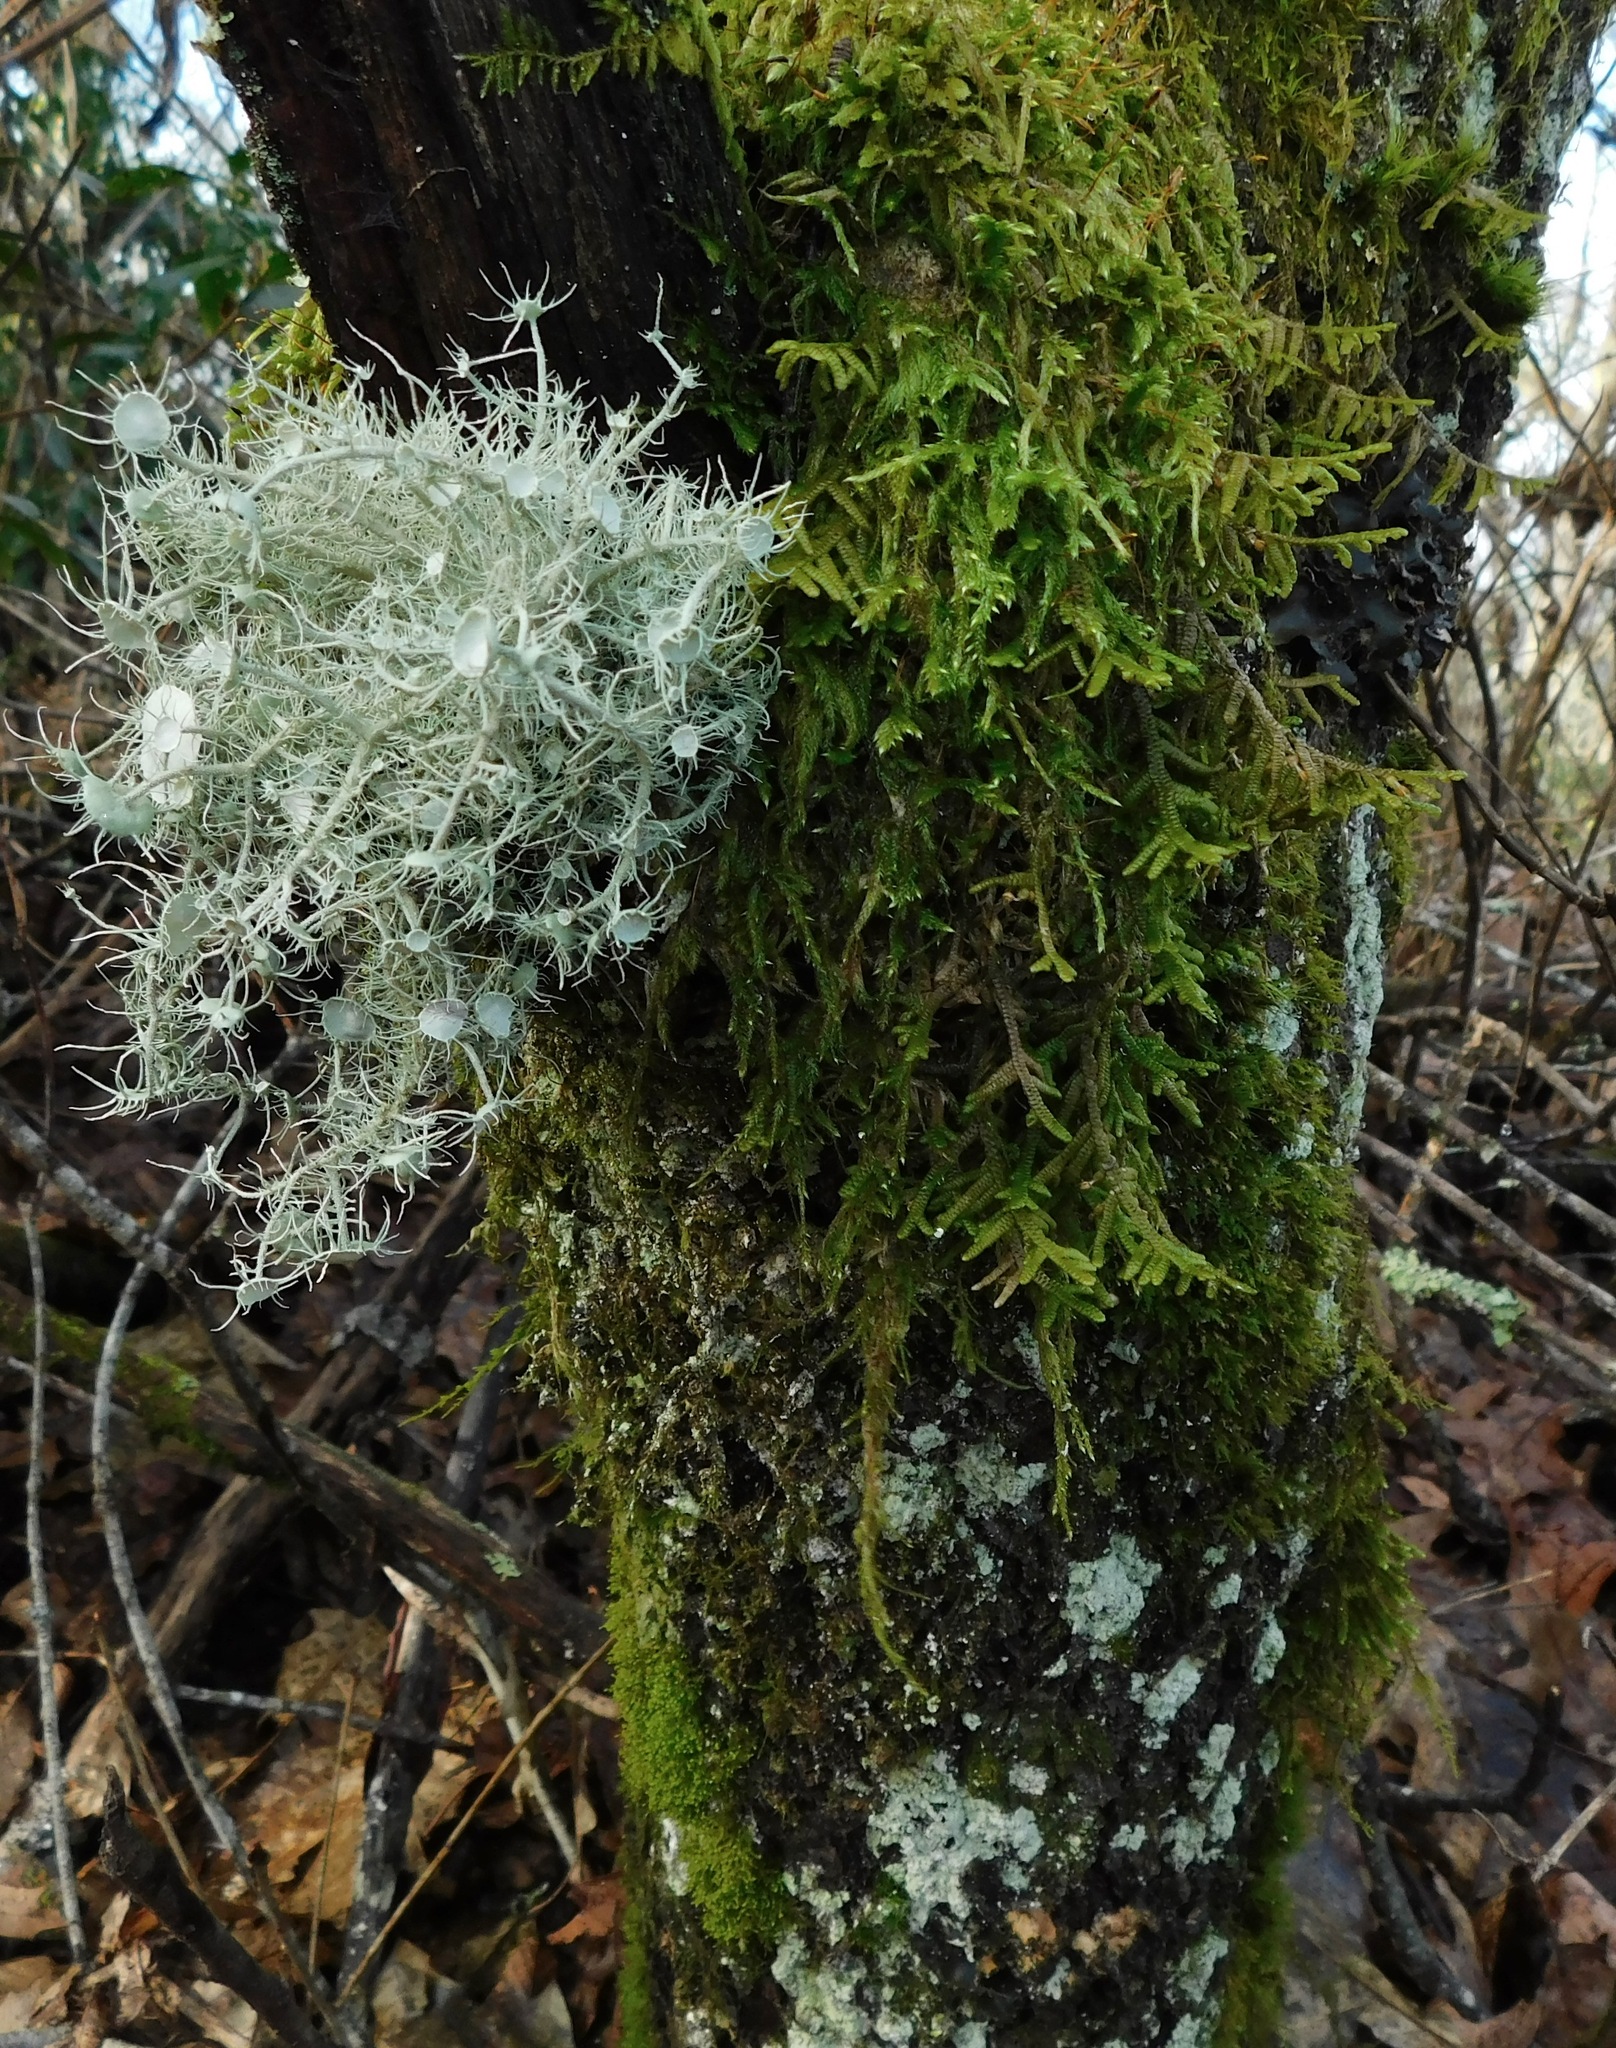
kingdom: Fungi
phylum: Ascomycota
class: Lecanoromycetes
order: Lecanorales
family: Parmeliaceae
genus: Usnea
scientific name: Usnea strigosa
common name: Bushy beard lichen
